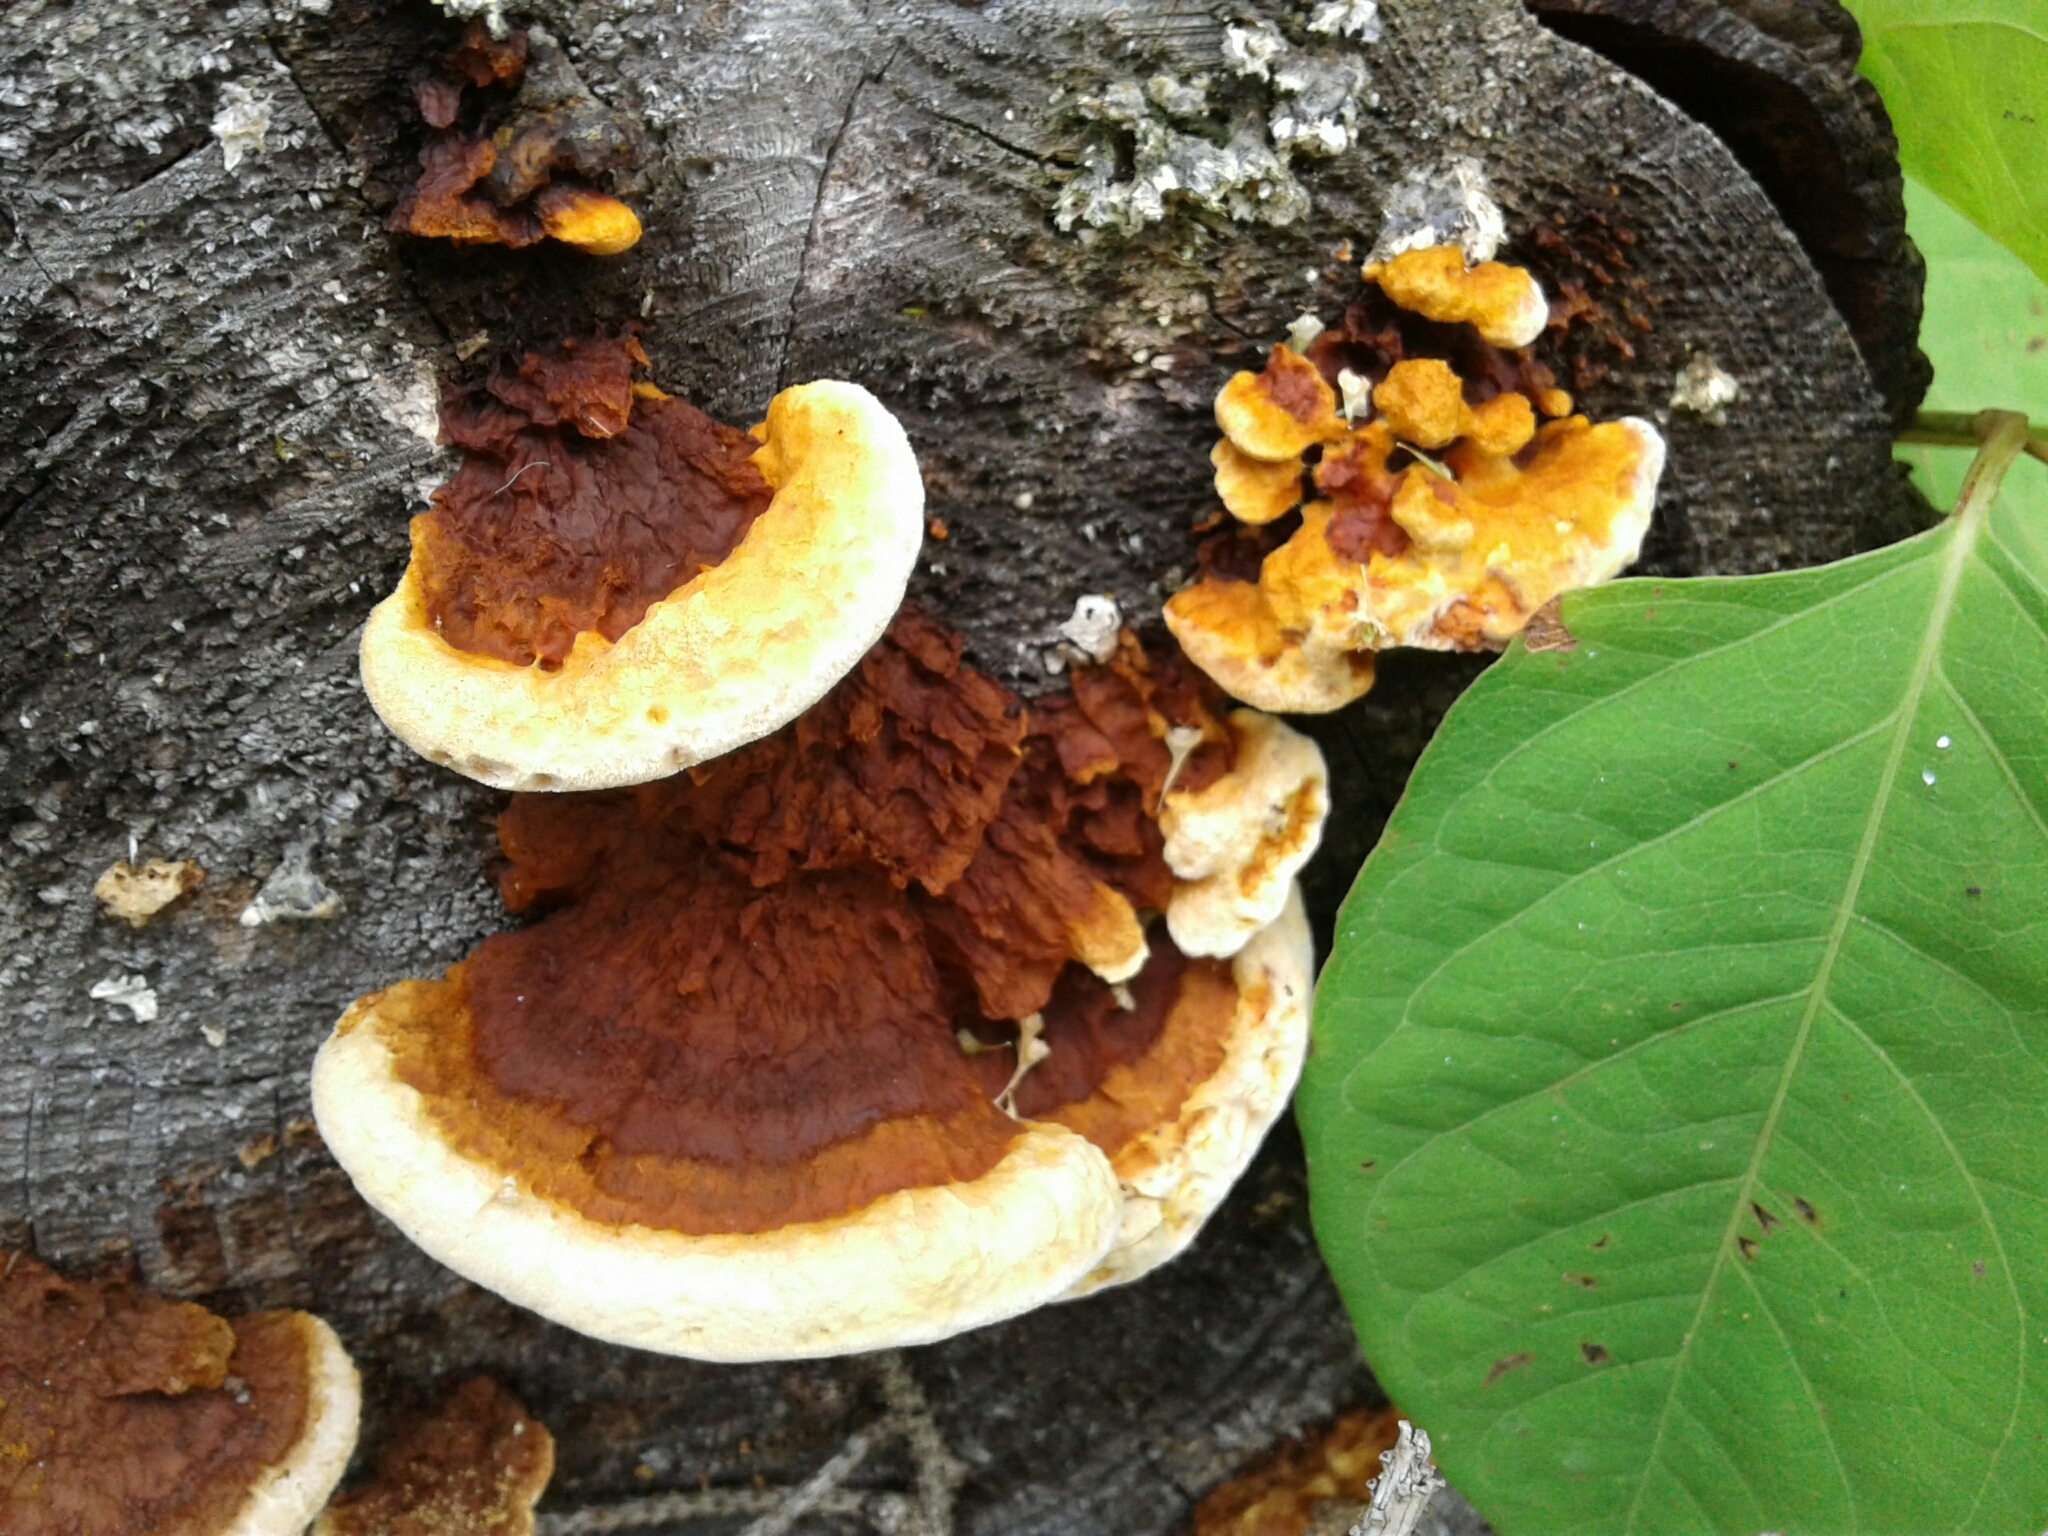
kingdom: Fungi
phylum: Basidiomycota
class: Agaricomycetes
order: Gloeophyllales
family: Gloeophyllaceae
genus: Gloeophyllum
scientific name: Gloeophyllum sepiarium
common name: Conifer mazegill
